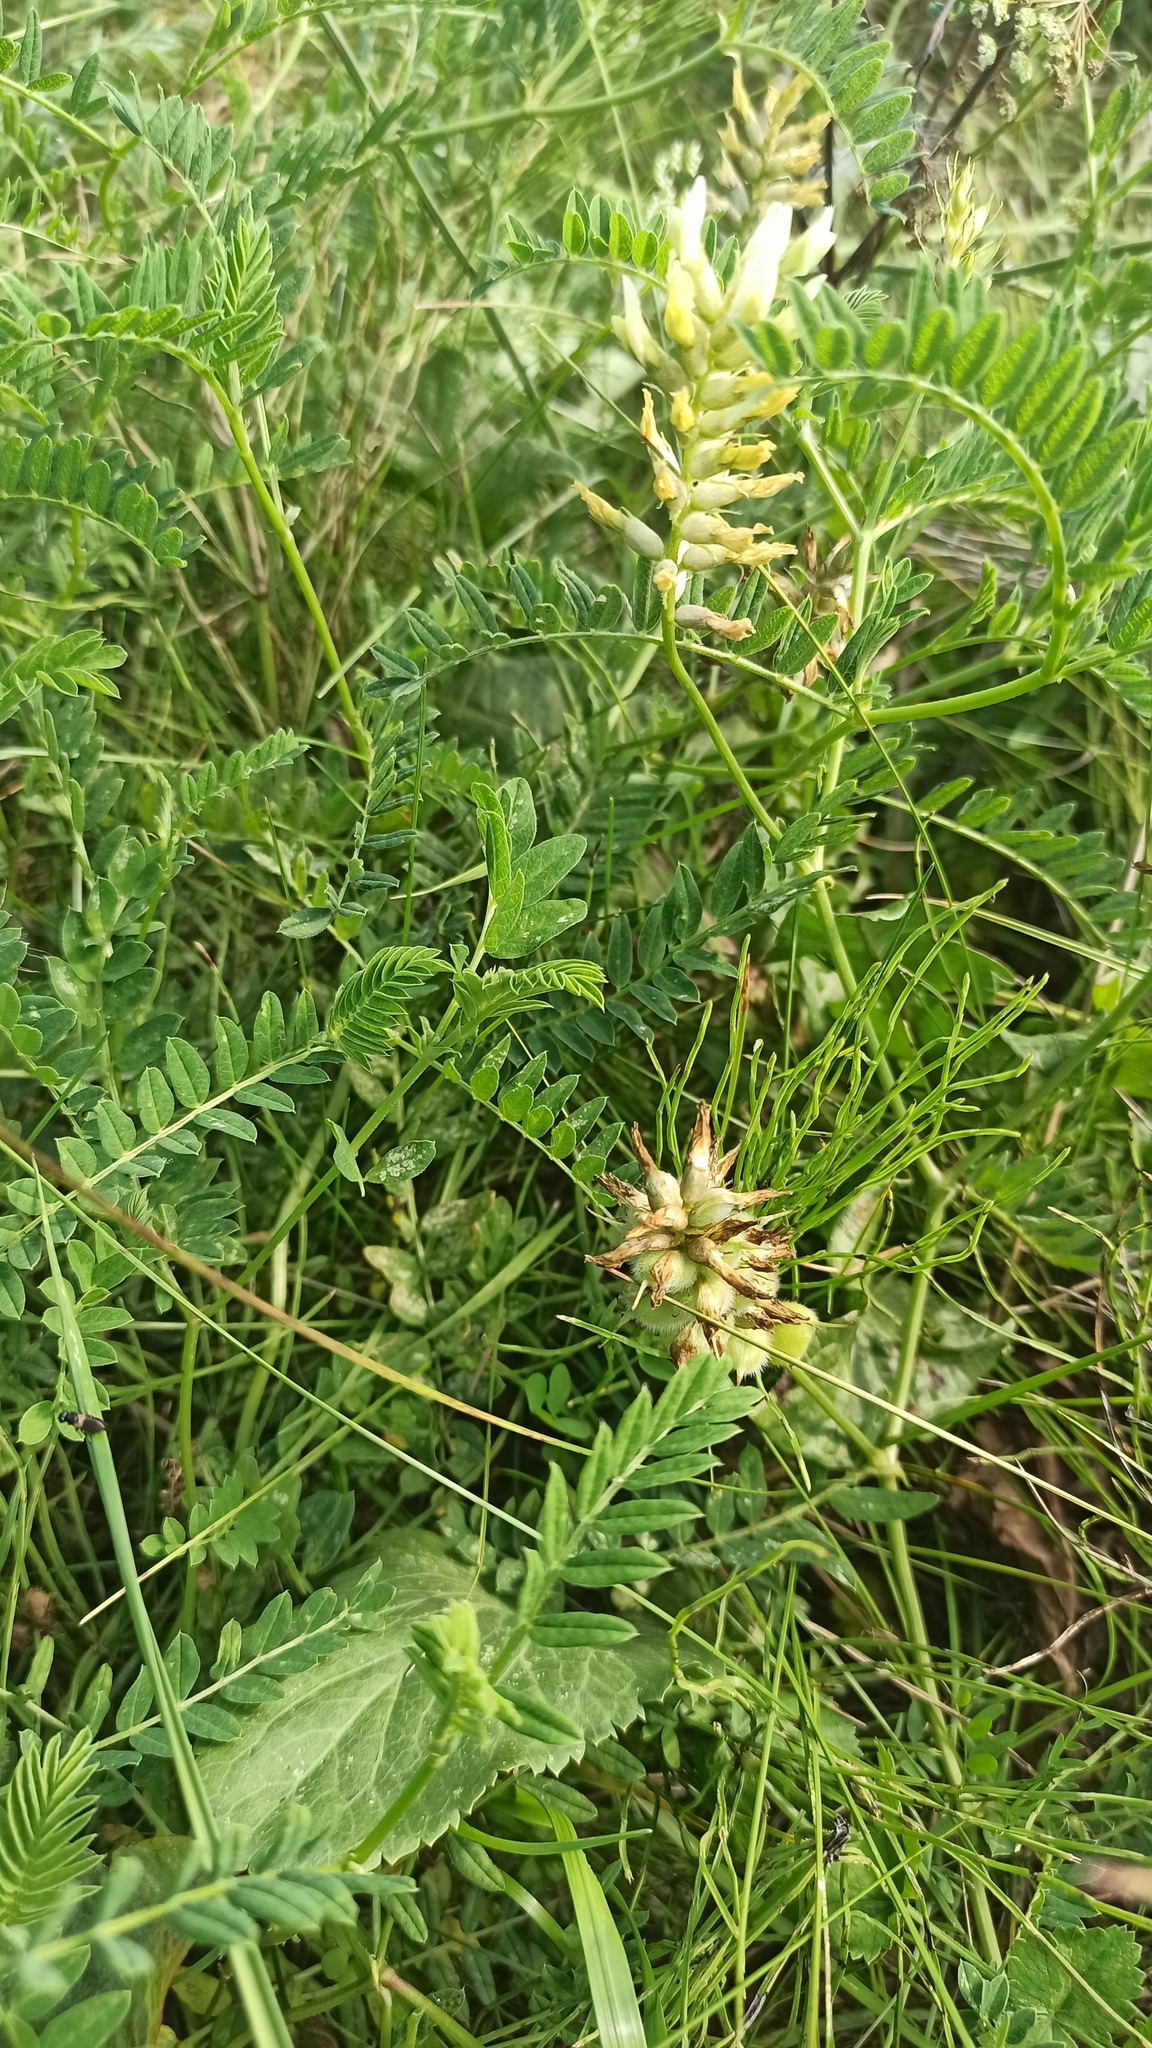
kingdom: Plantae
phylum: Tracheophyta
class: Magnoliopsida
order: Fabales
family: Fabaceae
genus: Astragalus
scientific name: Astragalus cicer
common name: Chick-pea milk-vetch
